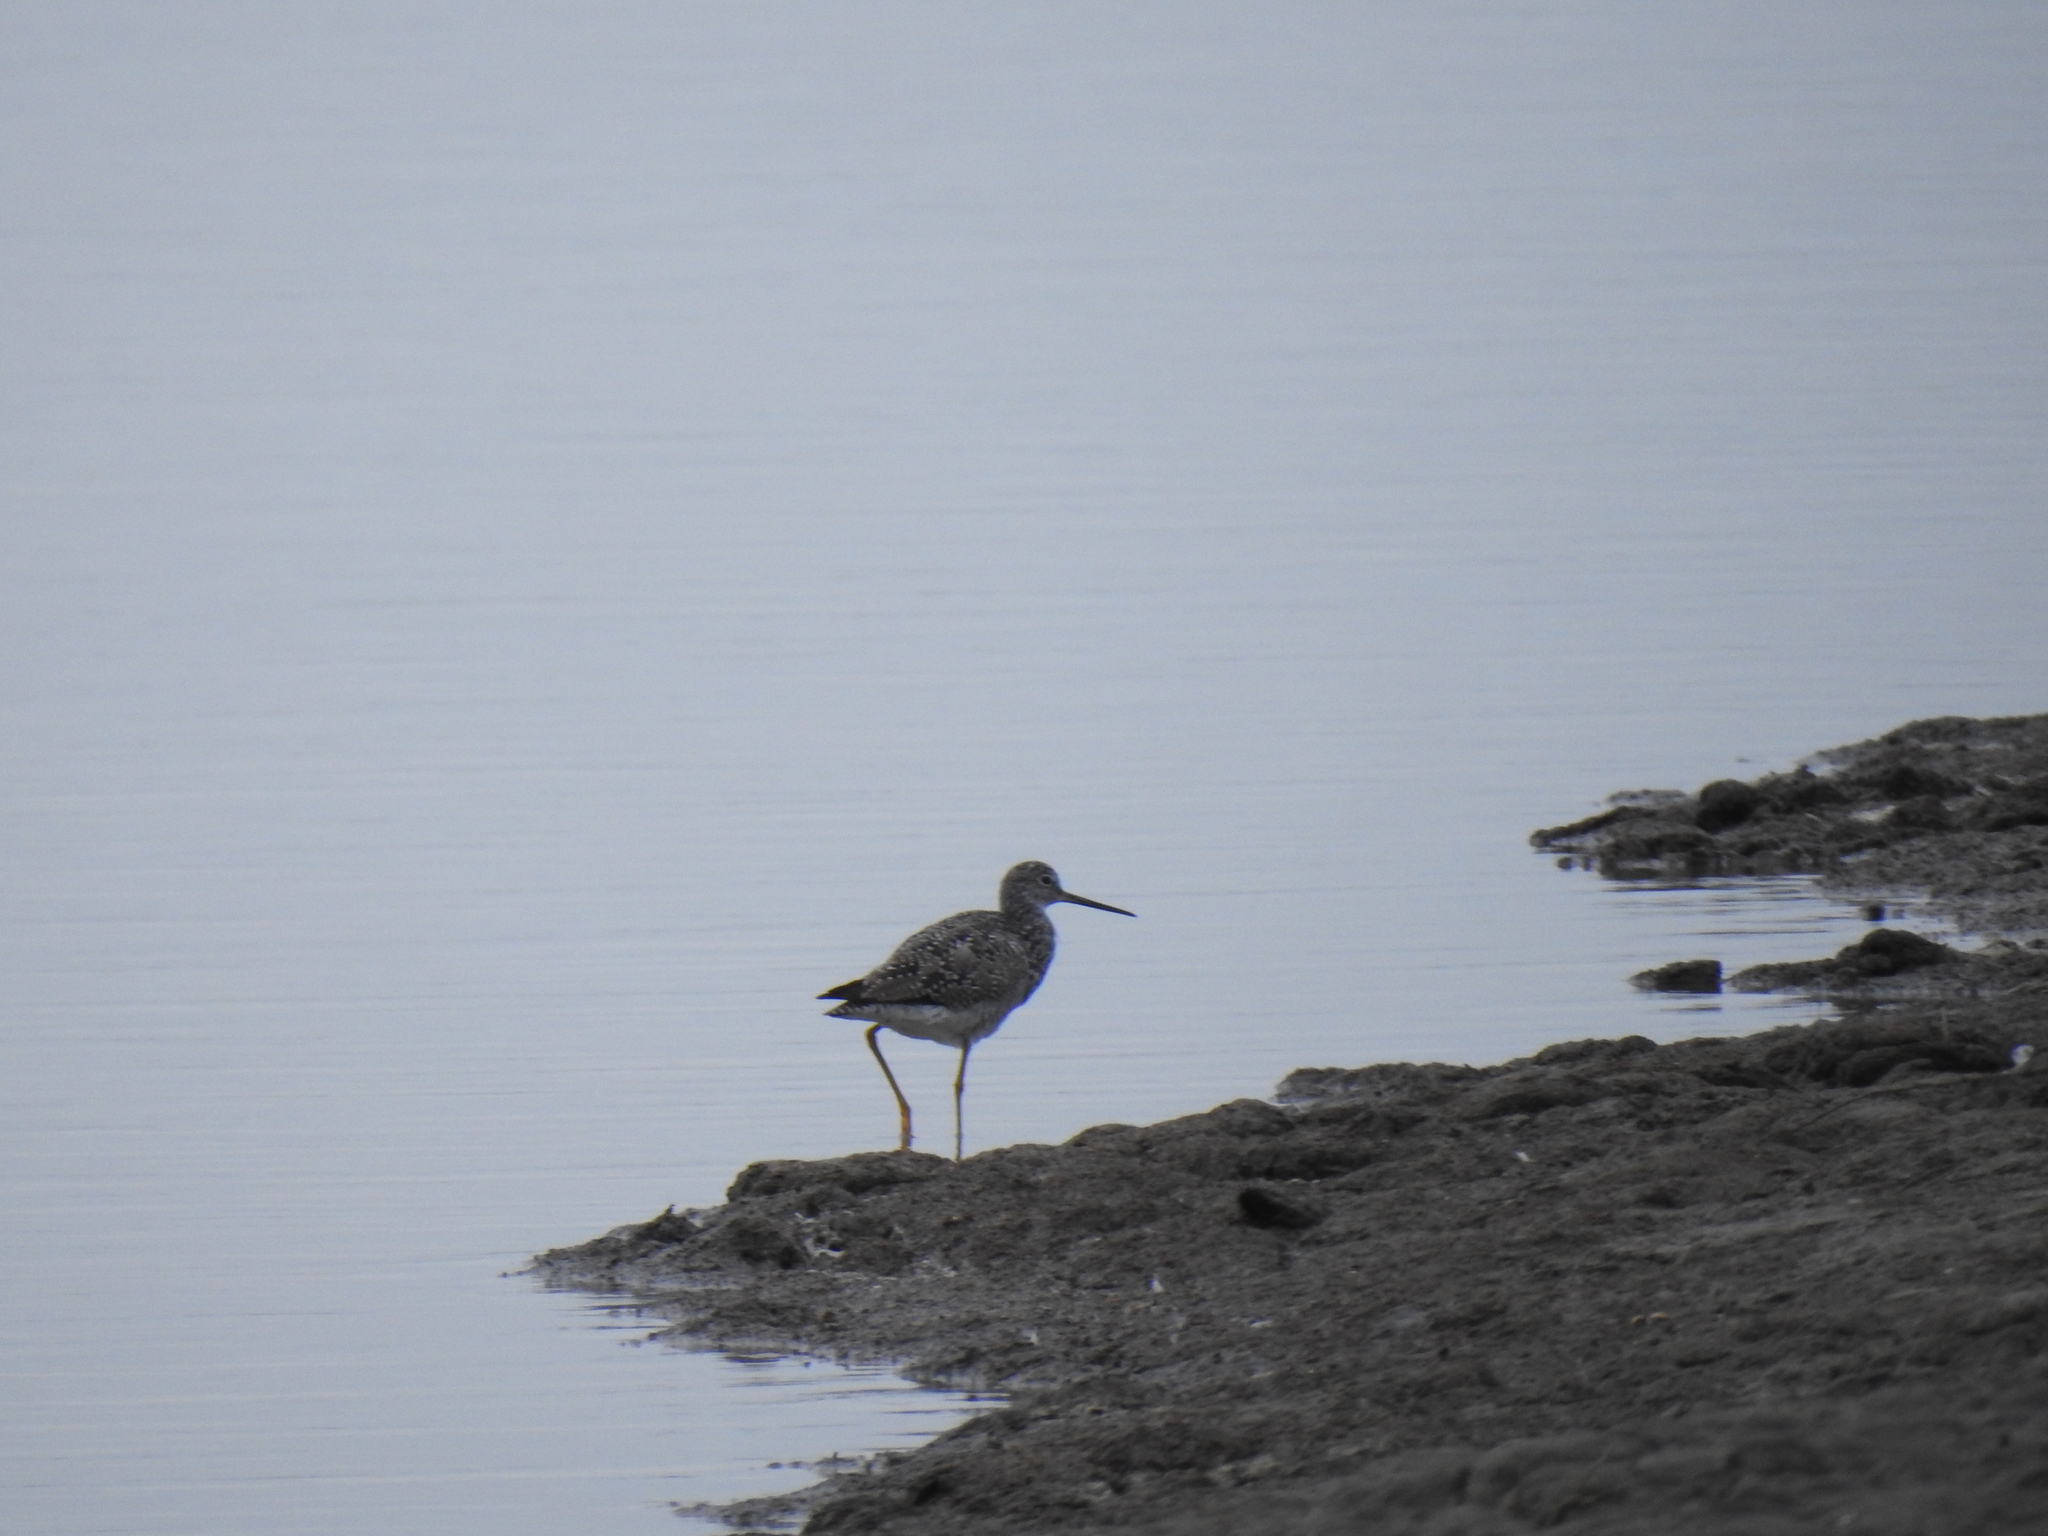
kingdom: Animalia
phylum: Chordata
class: Aves
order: Charadriiformes
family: Scolopacidae
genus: Tringa
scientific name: Tringa melanoleuca
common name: Greater yellowlegs
